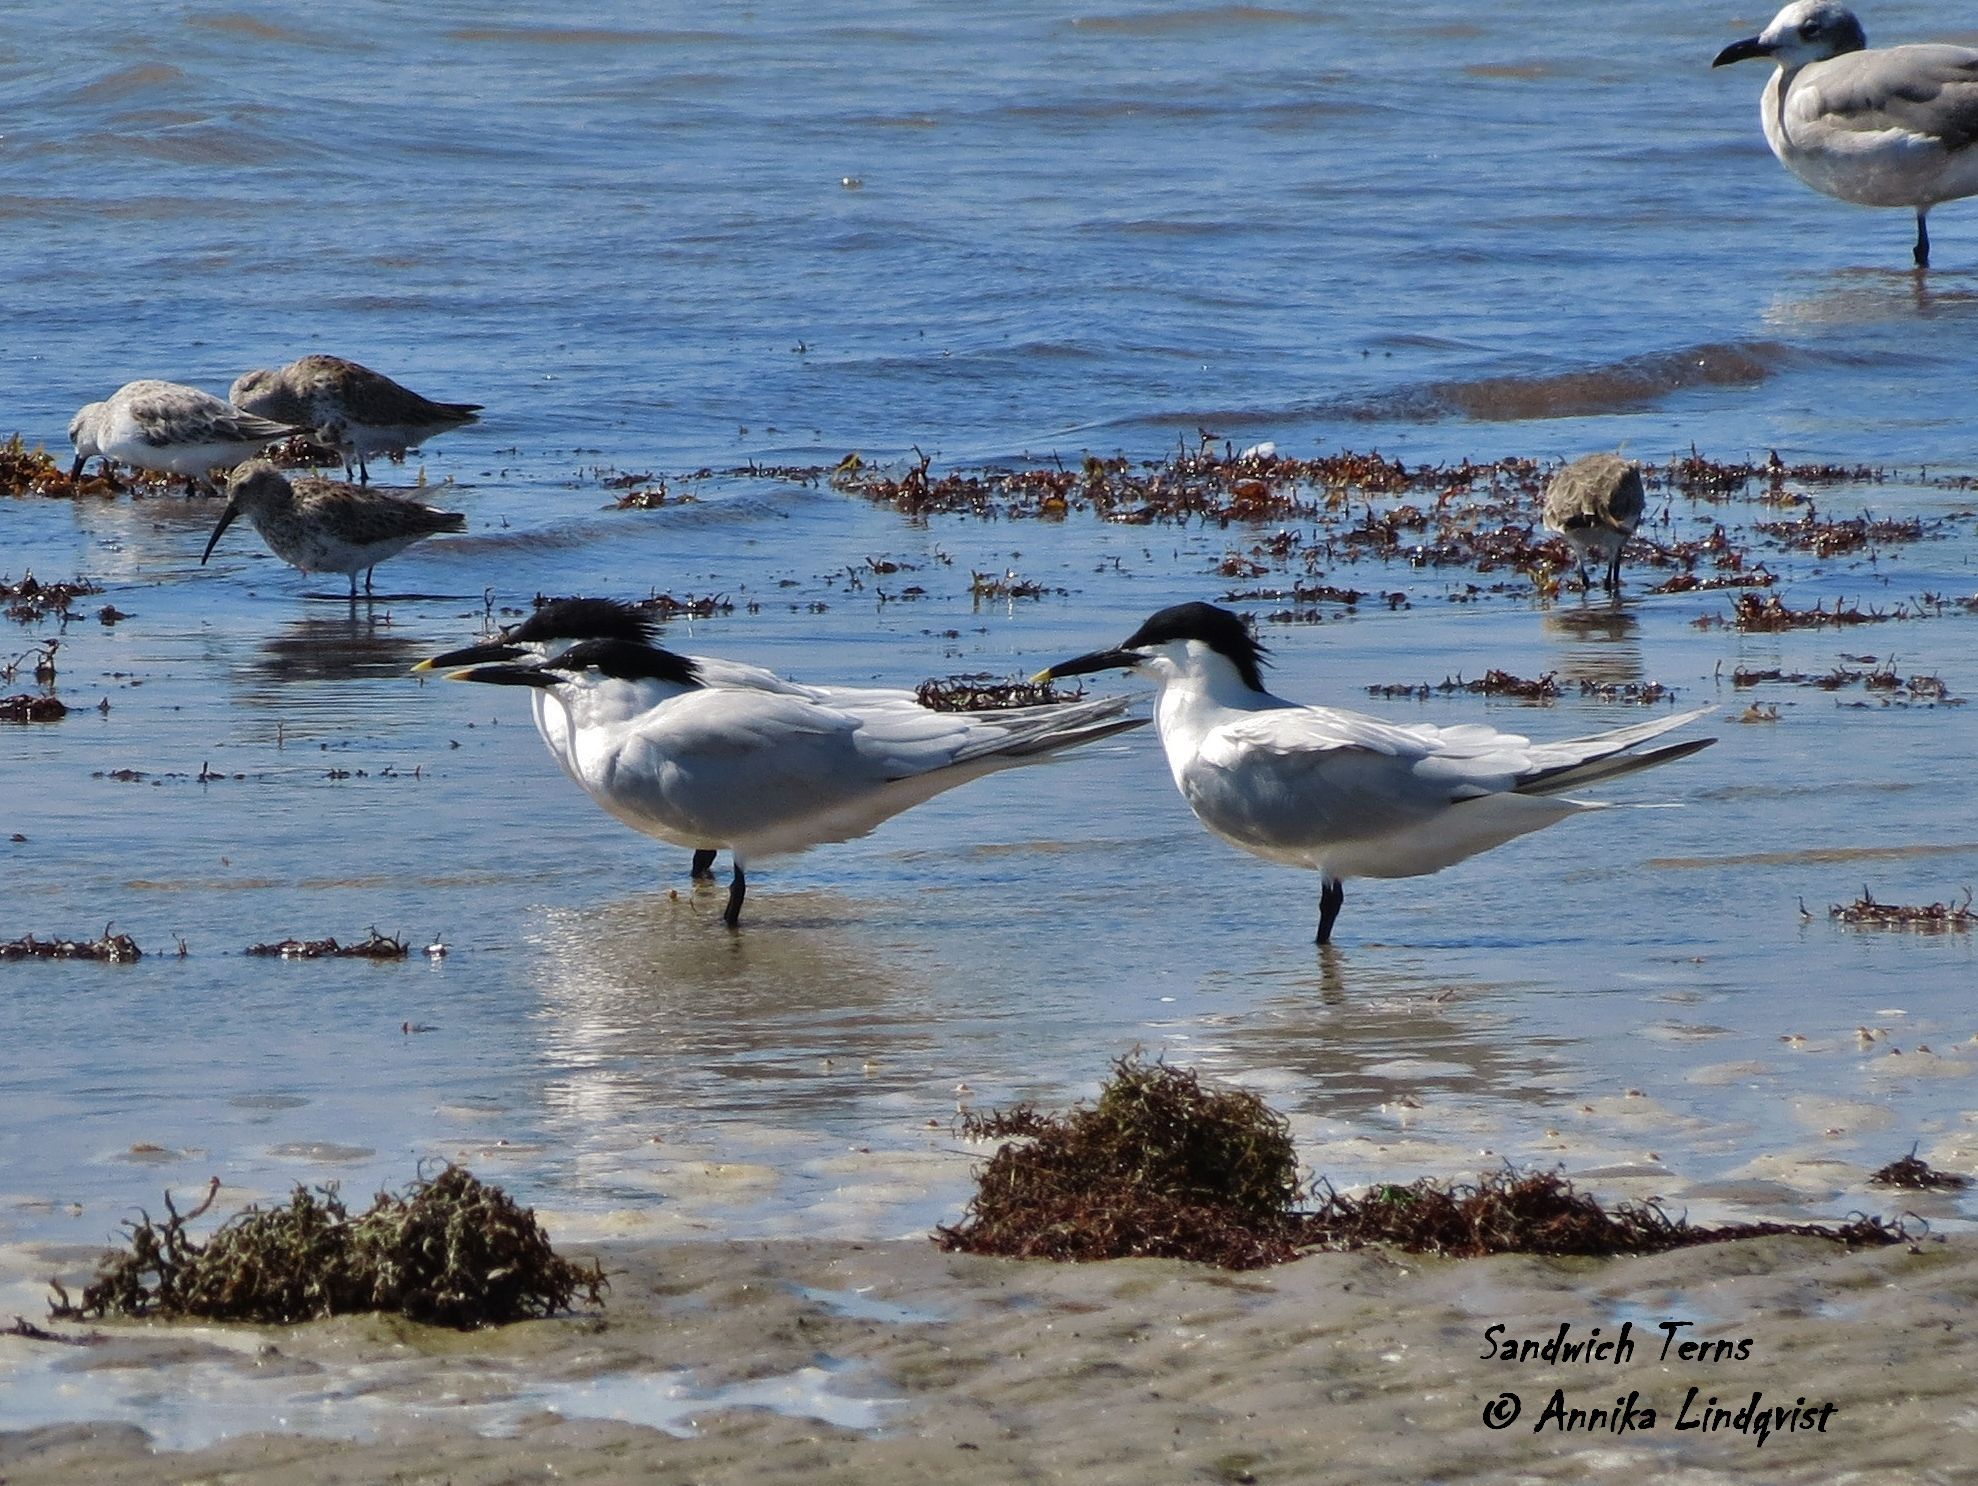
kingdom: Animalia
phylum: Chordata
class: Aves
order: Charadriiformes
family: Laridae
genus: Thalasseus
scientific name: Thalasseus sandvicensis
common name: Sandwich tern
